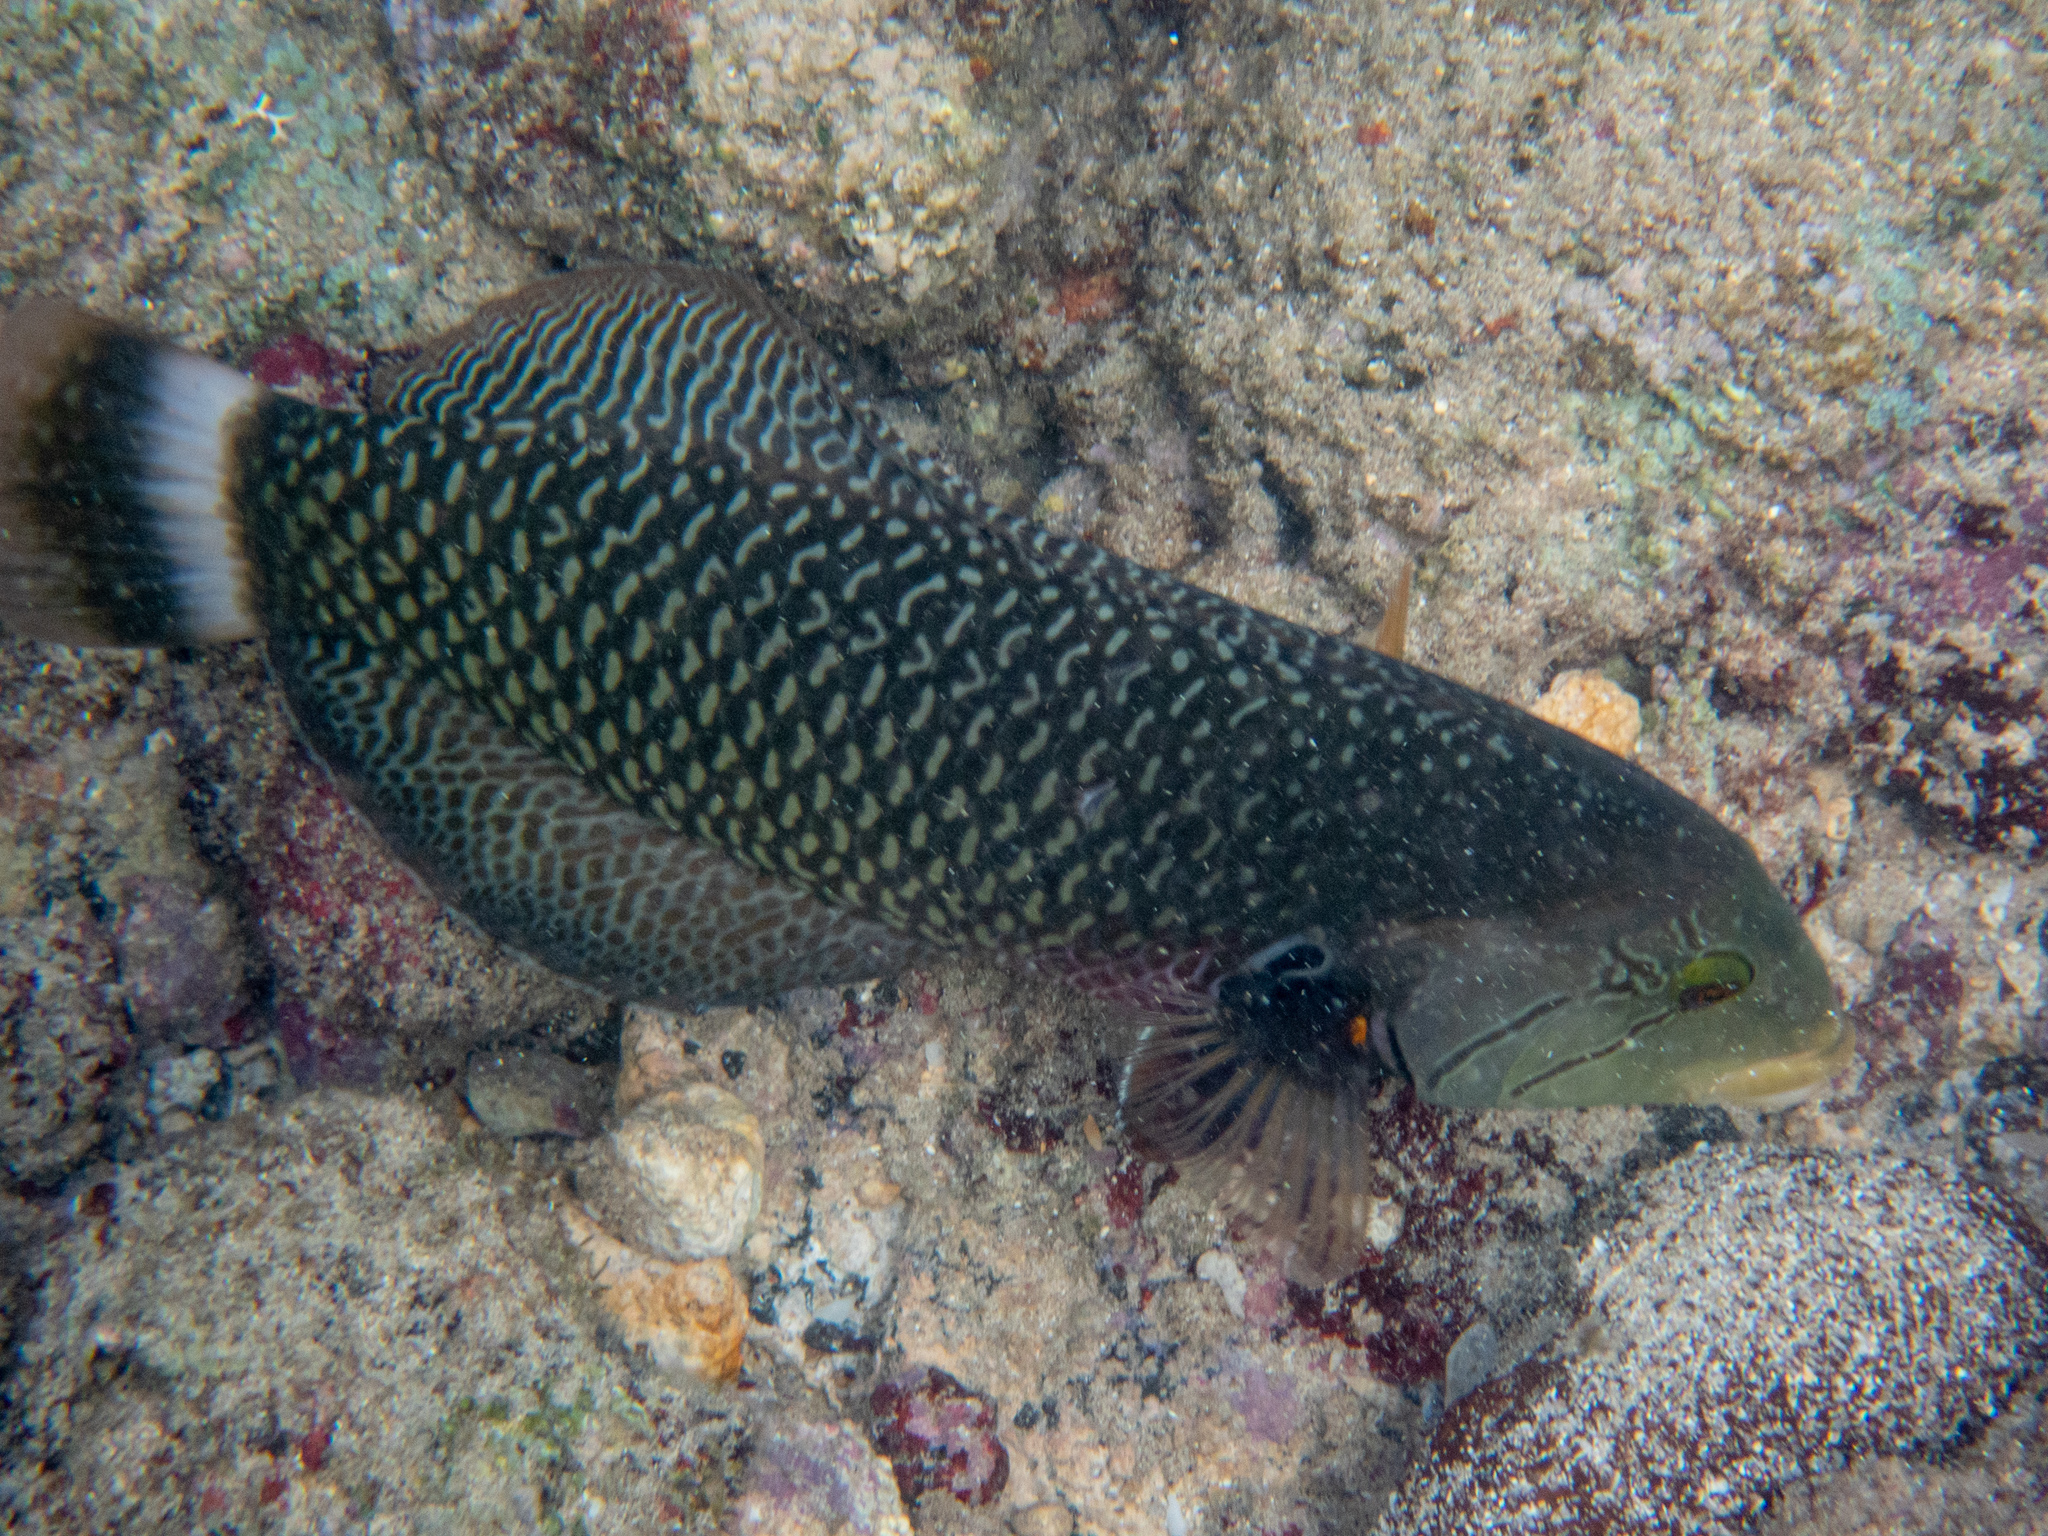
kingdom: Animalia
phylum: Chordata
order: Perciformes
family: Labridae
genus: Novaculichthys
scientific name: Novaculichthys taeniourus
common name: Rockmover wrasse
